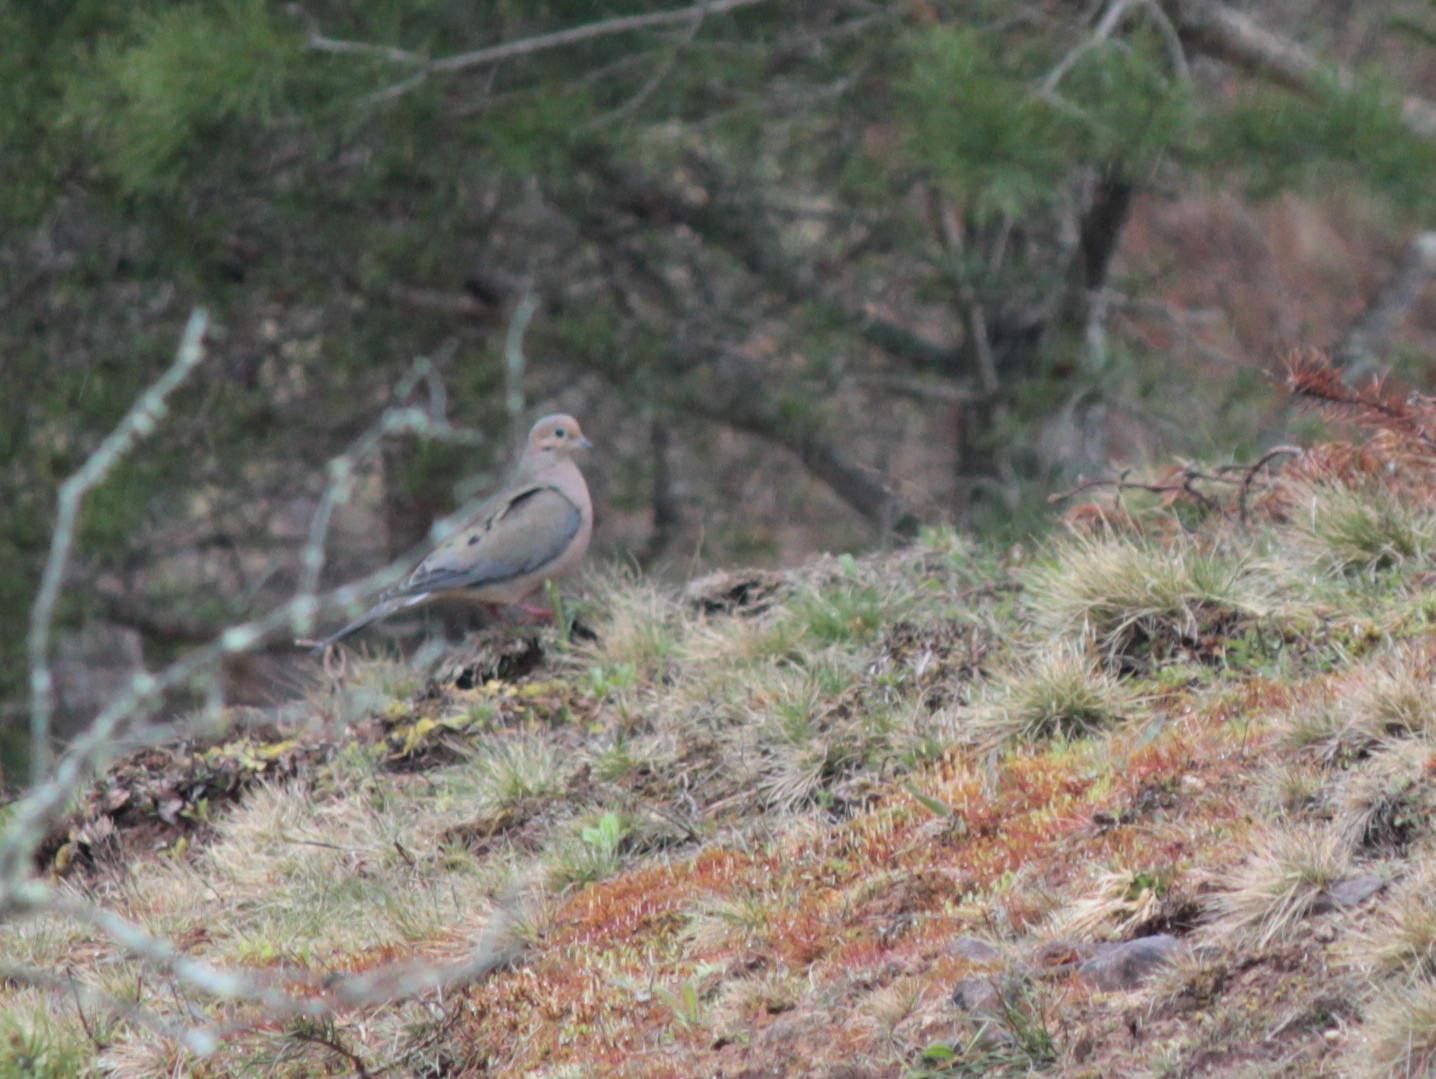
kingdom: Animalia
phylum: Chordata
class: Aves
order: Columbiformes
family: Columbidae
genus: Zenaida
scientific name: Zenaida macroura
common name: Mourning dove
